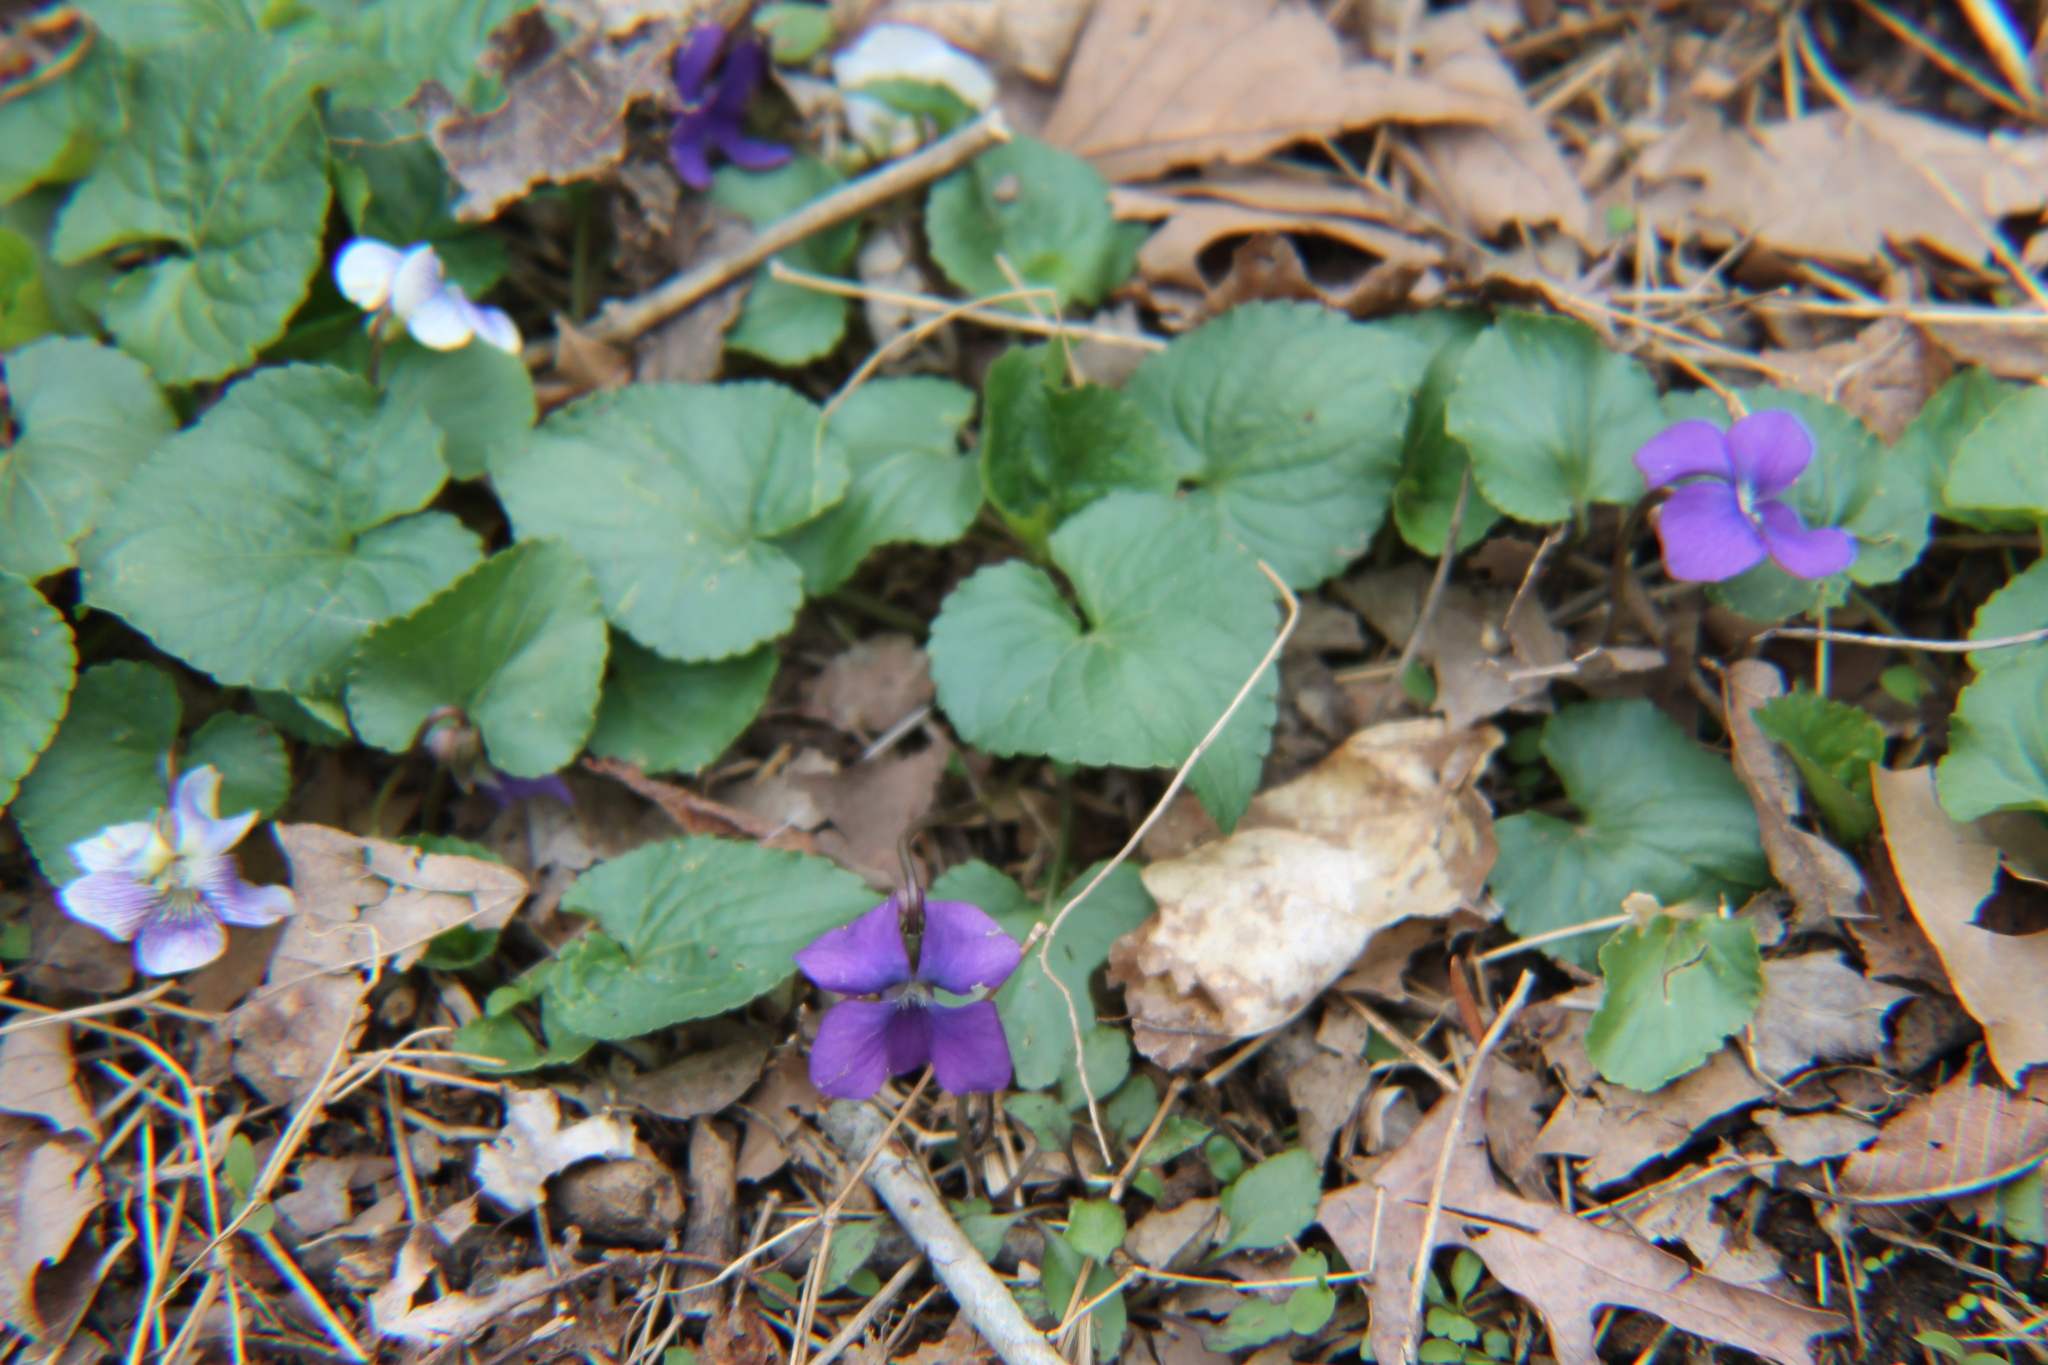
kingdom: Plantae
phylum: Tracheophyta
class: Magnoliopsida
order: Malpighiales
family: Violaceae
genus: Viola
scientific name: Viola sororia
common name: Dooryard violet
